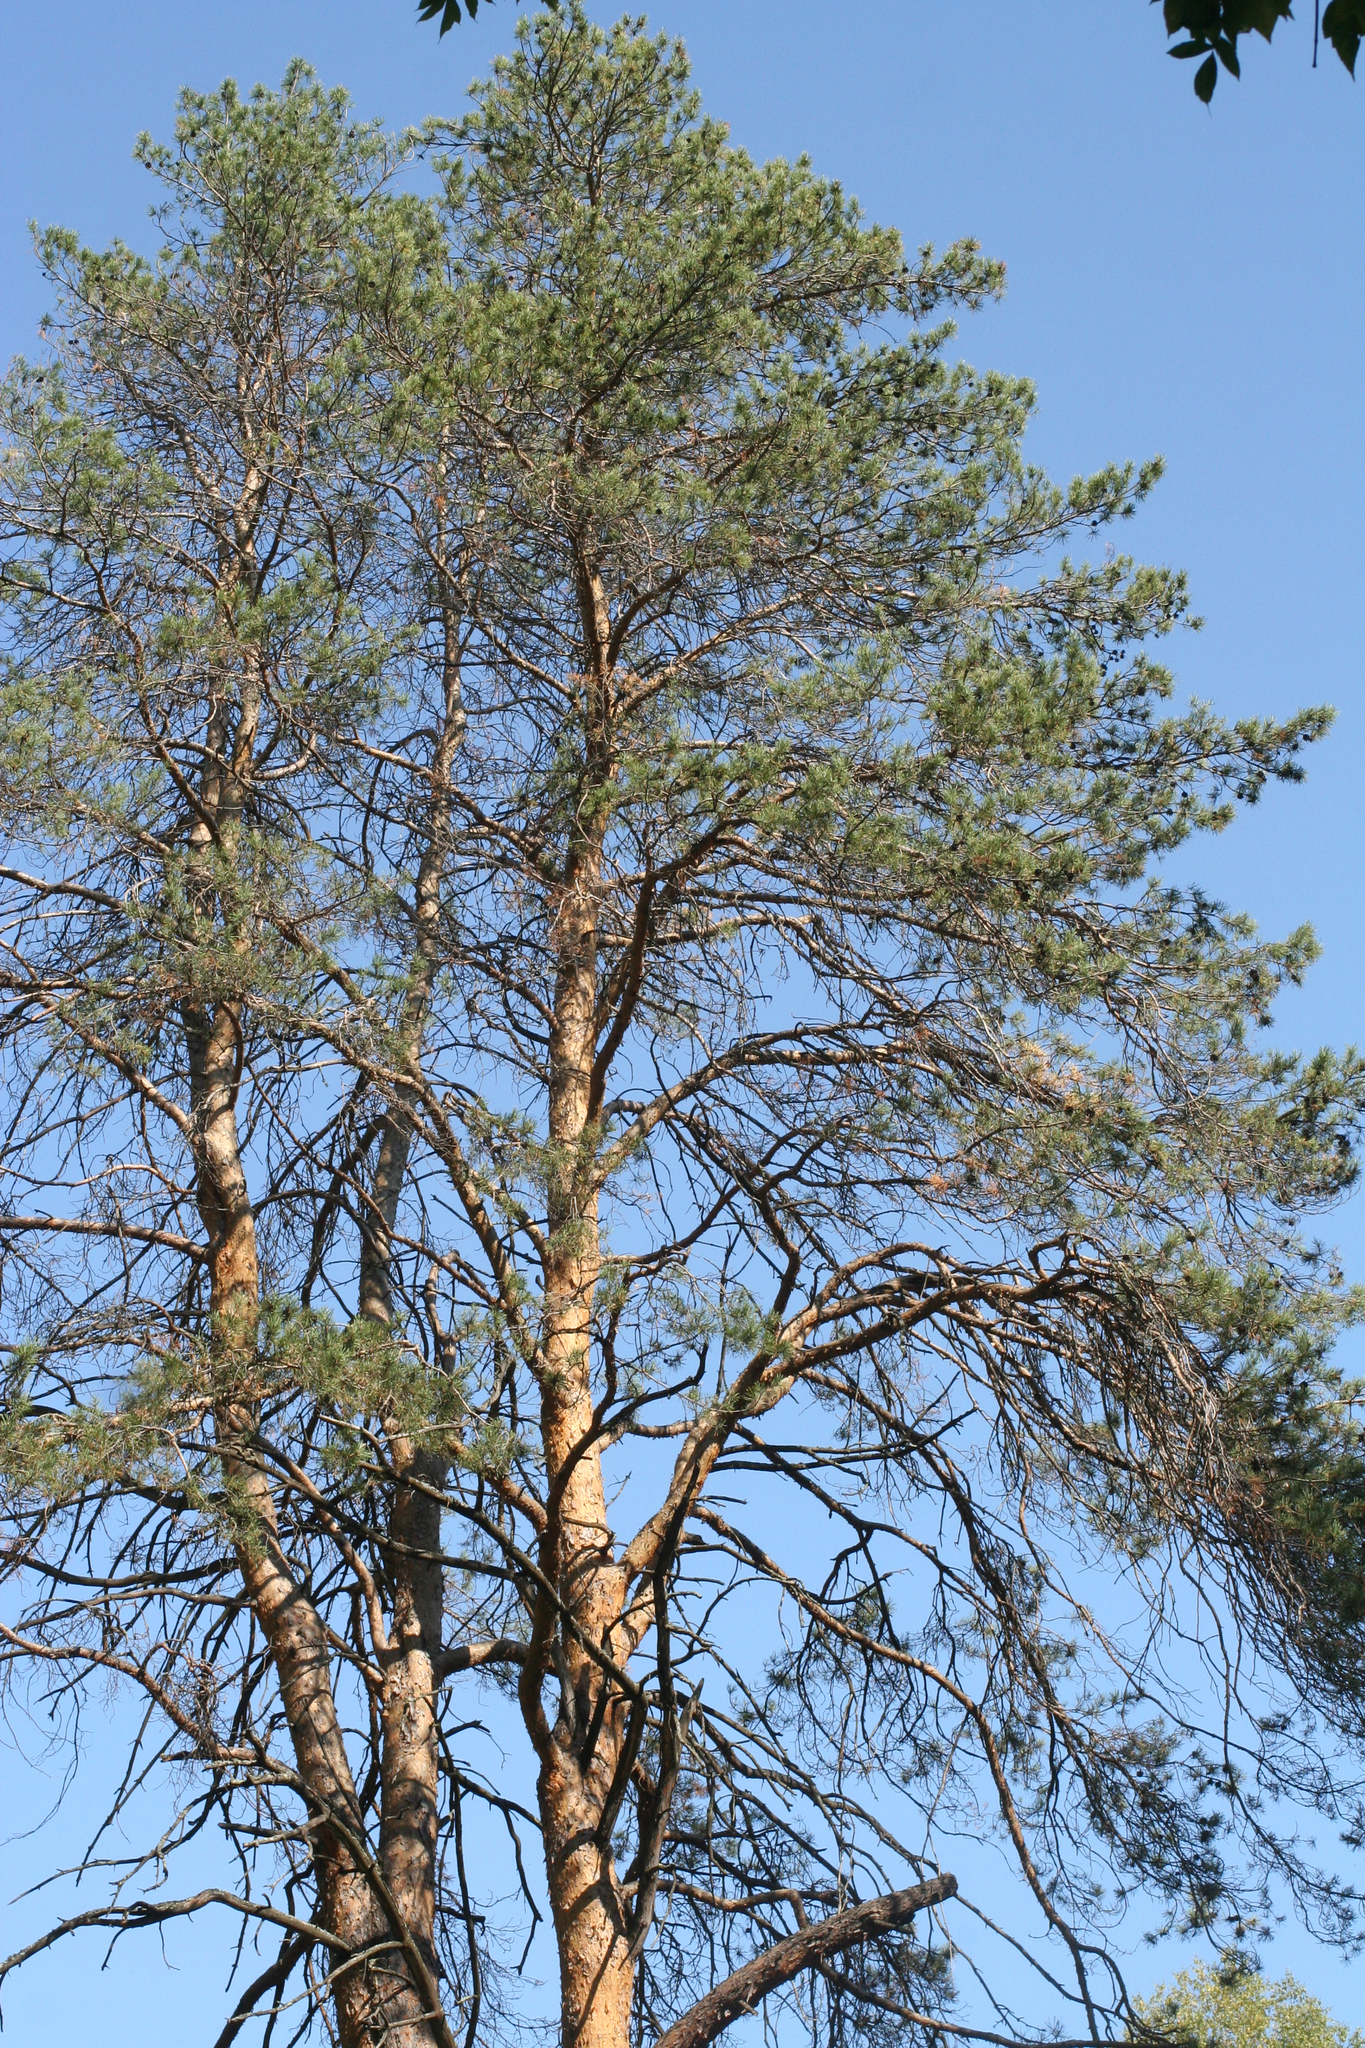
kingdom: Plantae
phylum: Tracheophyta
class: Pinopsida
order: Pinales
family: Pinaceae
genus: Pinus
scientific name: Pinus sylvestris
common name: Scots pine
